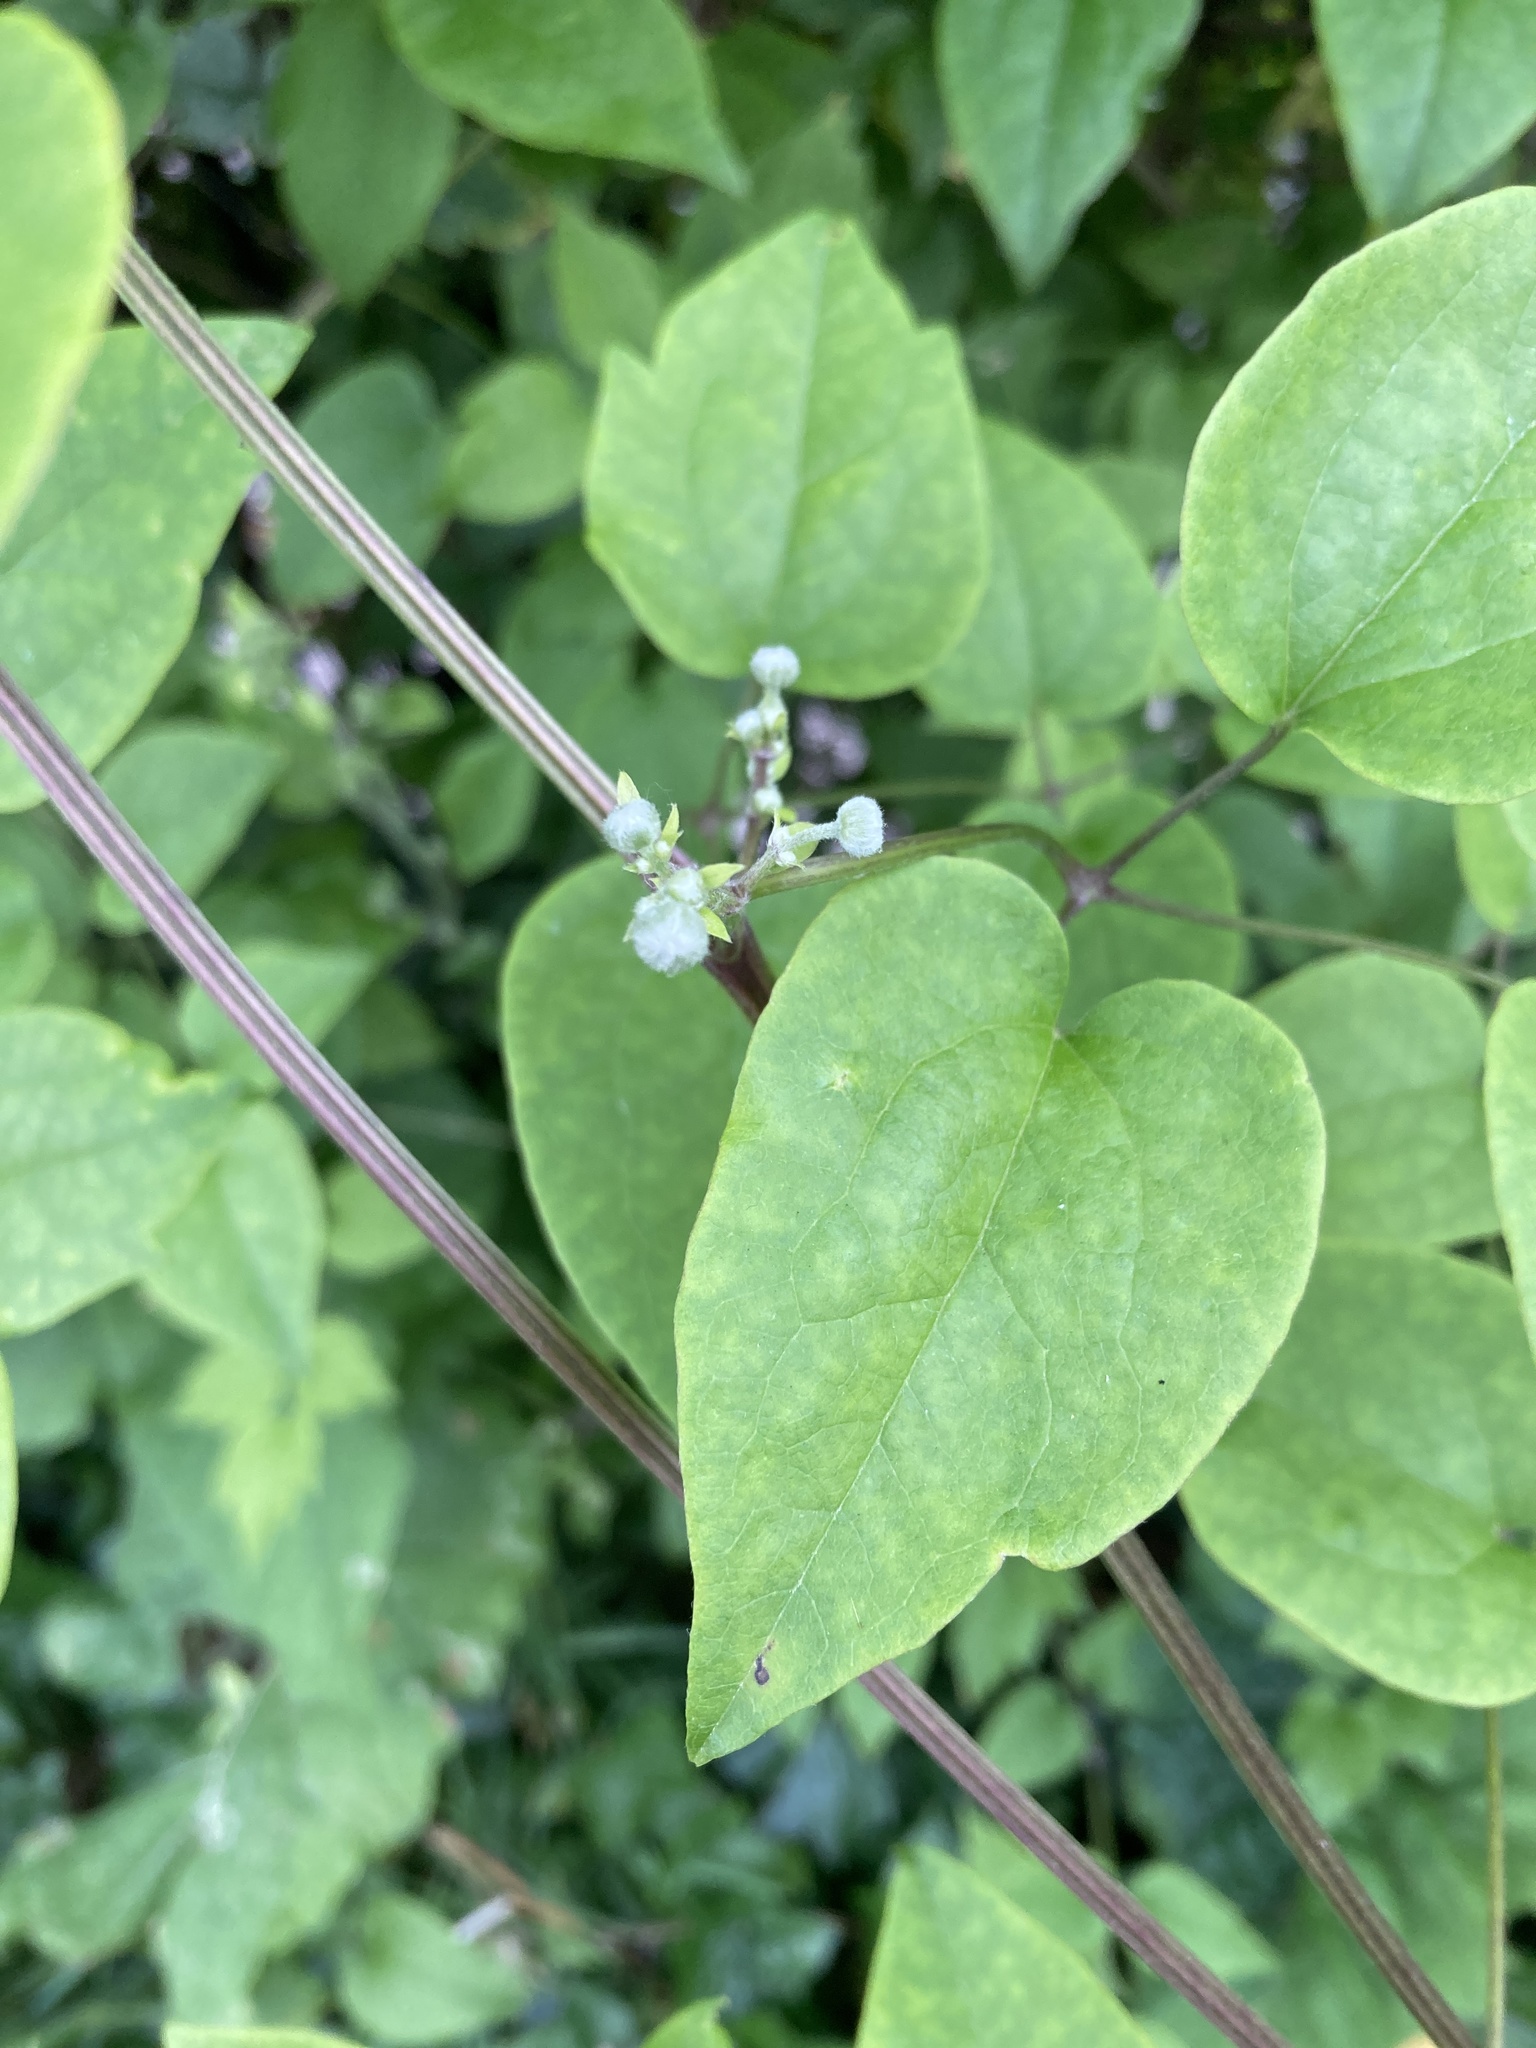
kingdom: Plantae
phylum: Tracheophyta
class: Magnoliopsida
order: Ranunculales
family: Ranunculaceae
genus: Clematis
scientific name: Clematis vitalba
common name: Evergreen clematis
